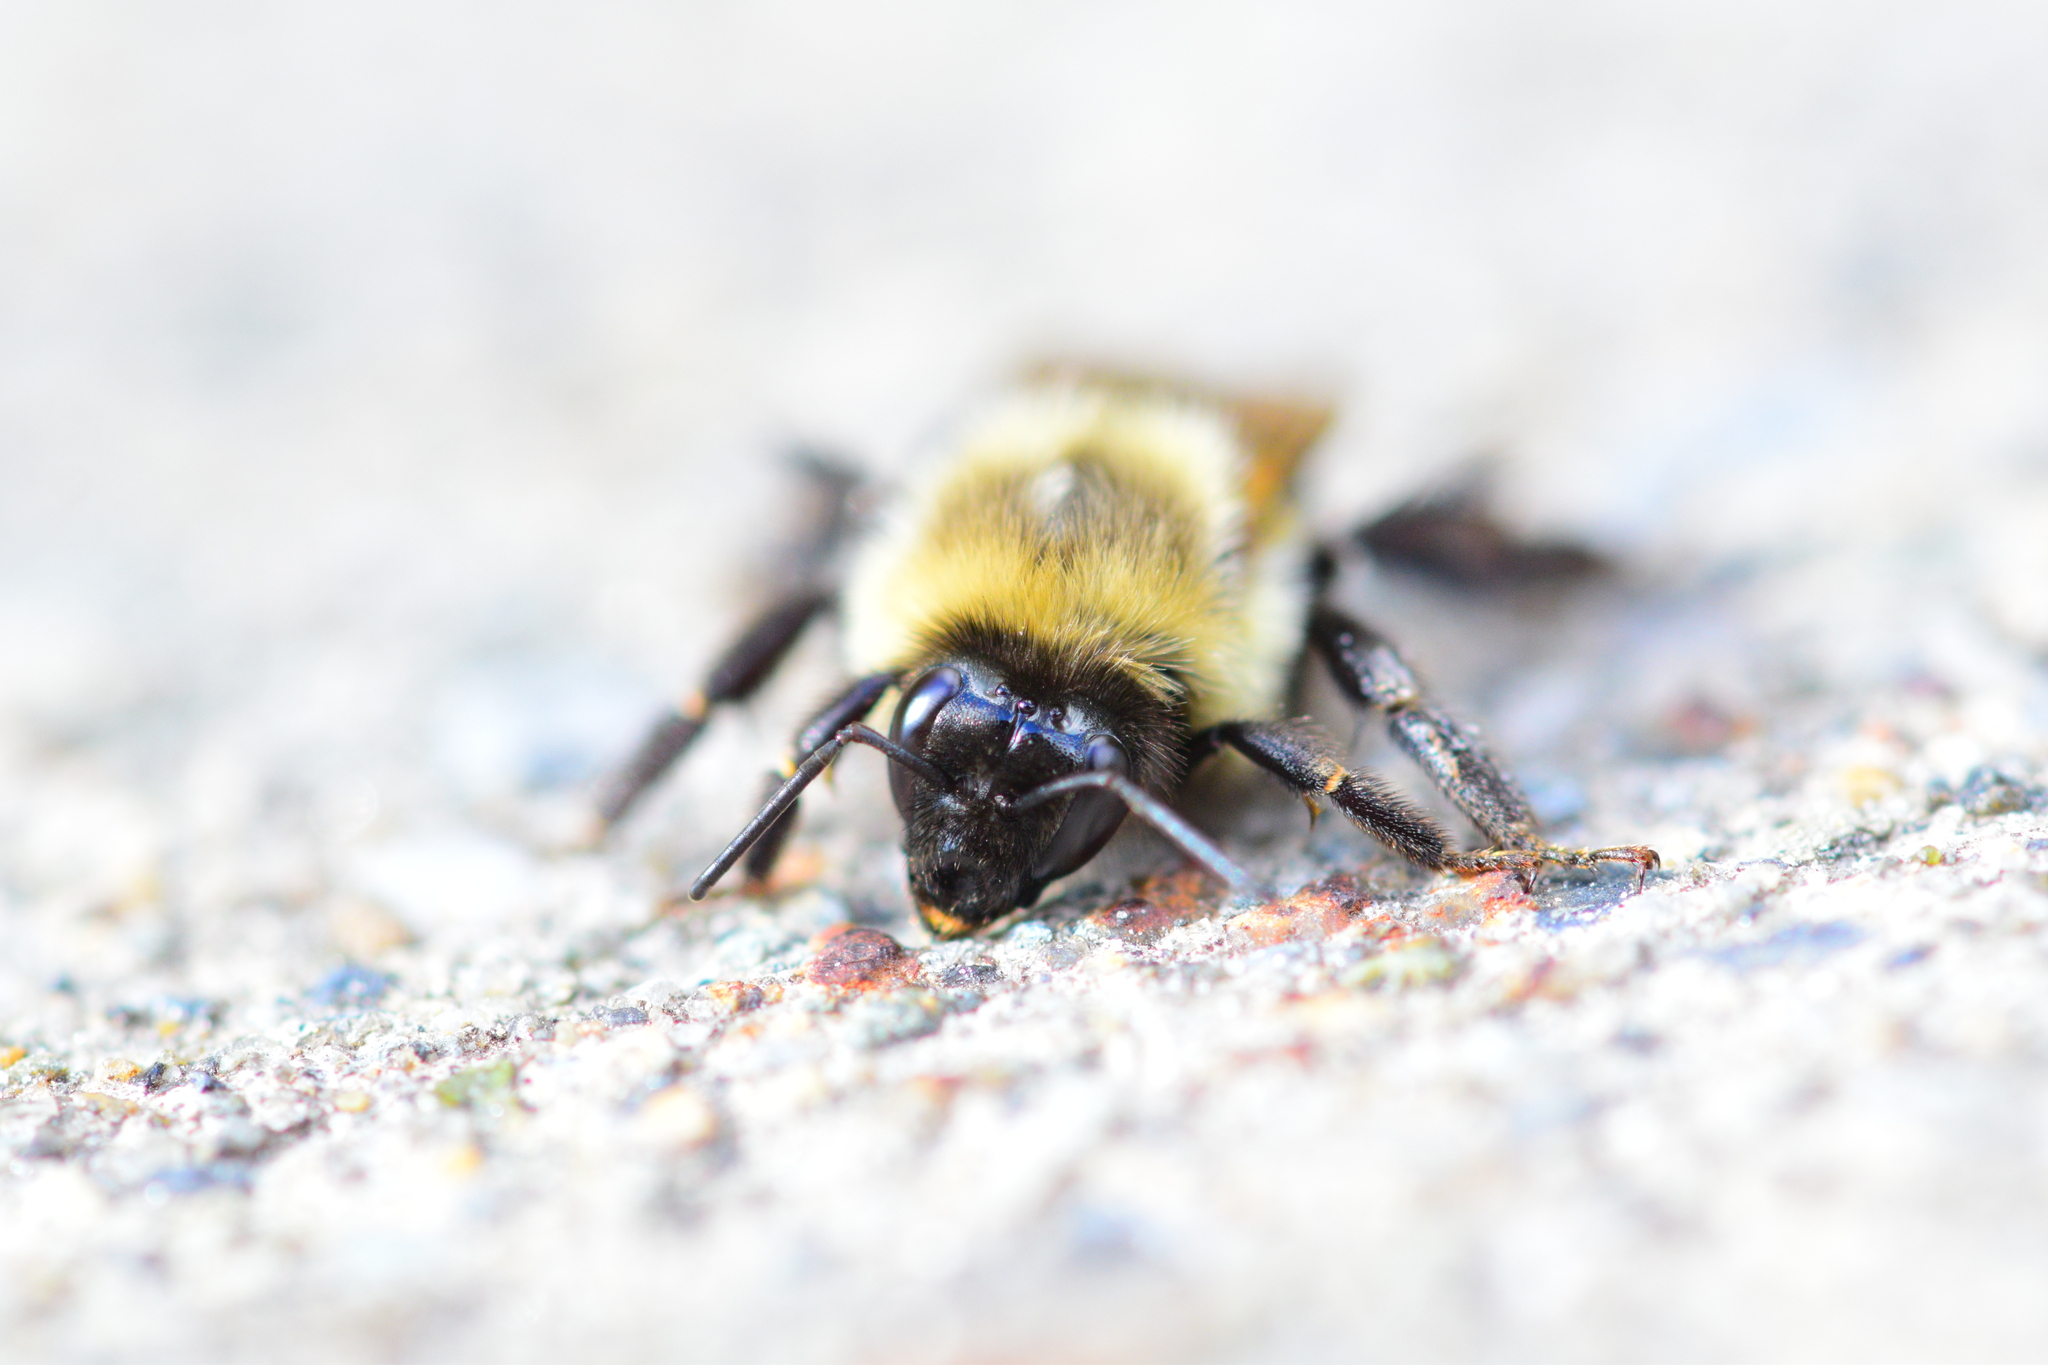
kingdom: Animalia
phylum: Arthropoda
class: Insecta
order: Hymenoptera
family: Apidae
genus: Bombus
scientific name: Bombus impatiens
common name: Common eastern bumble bee
